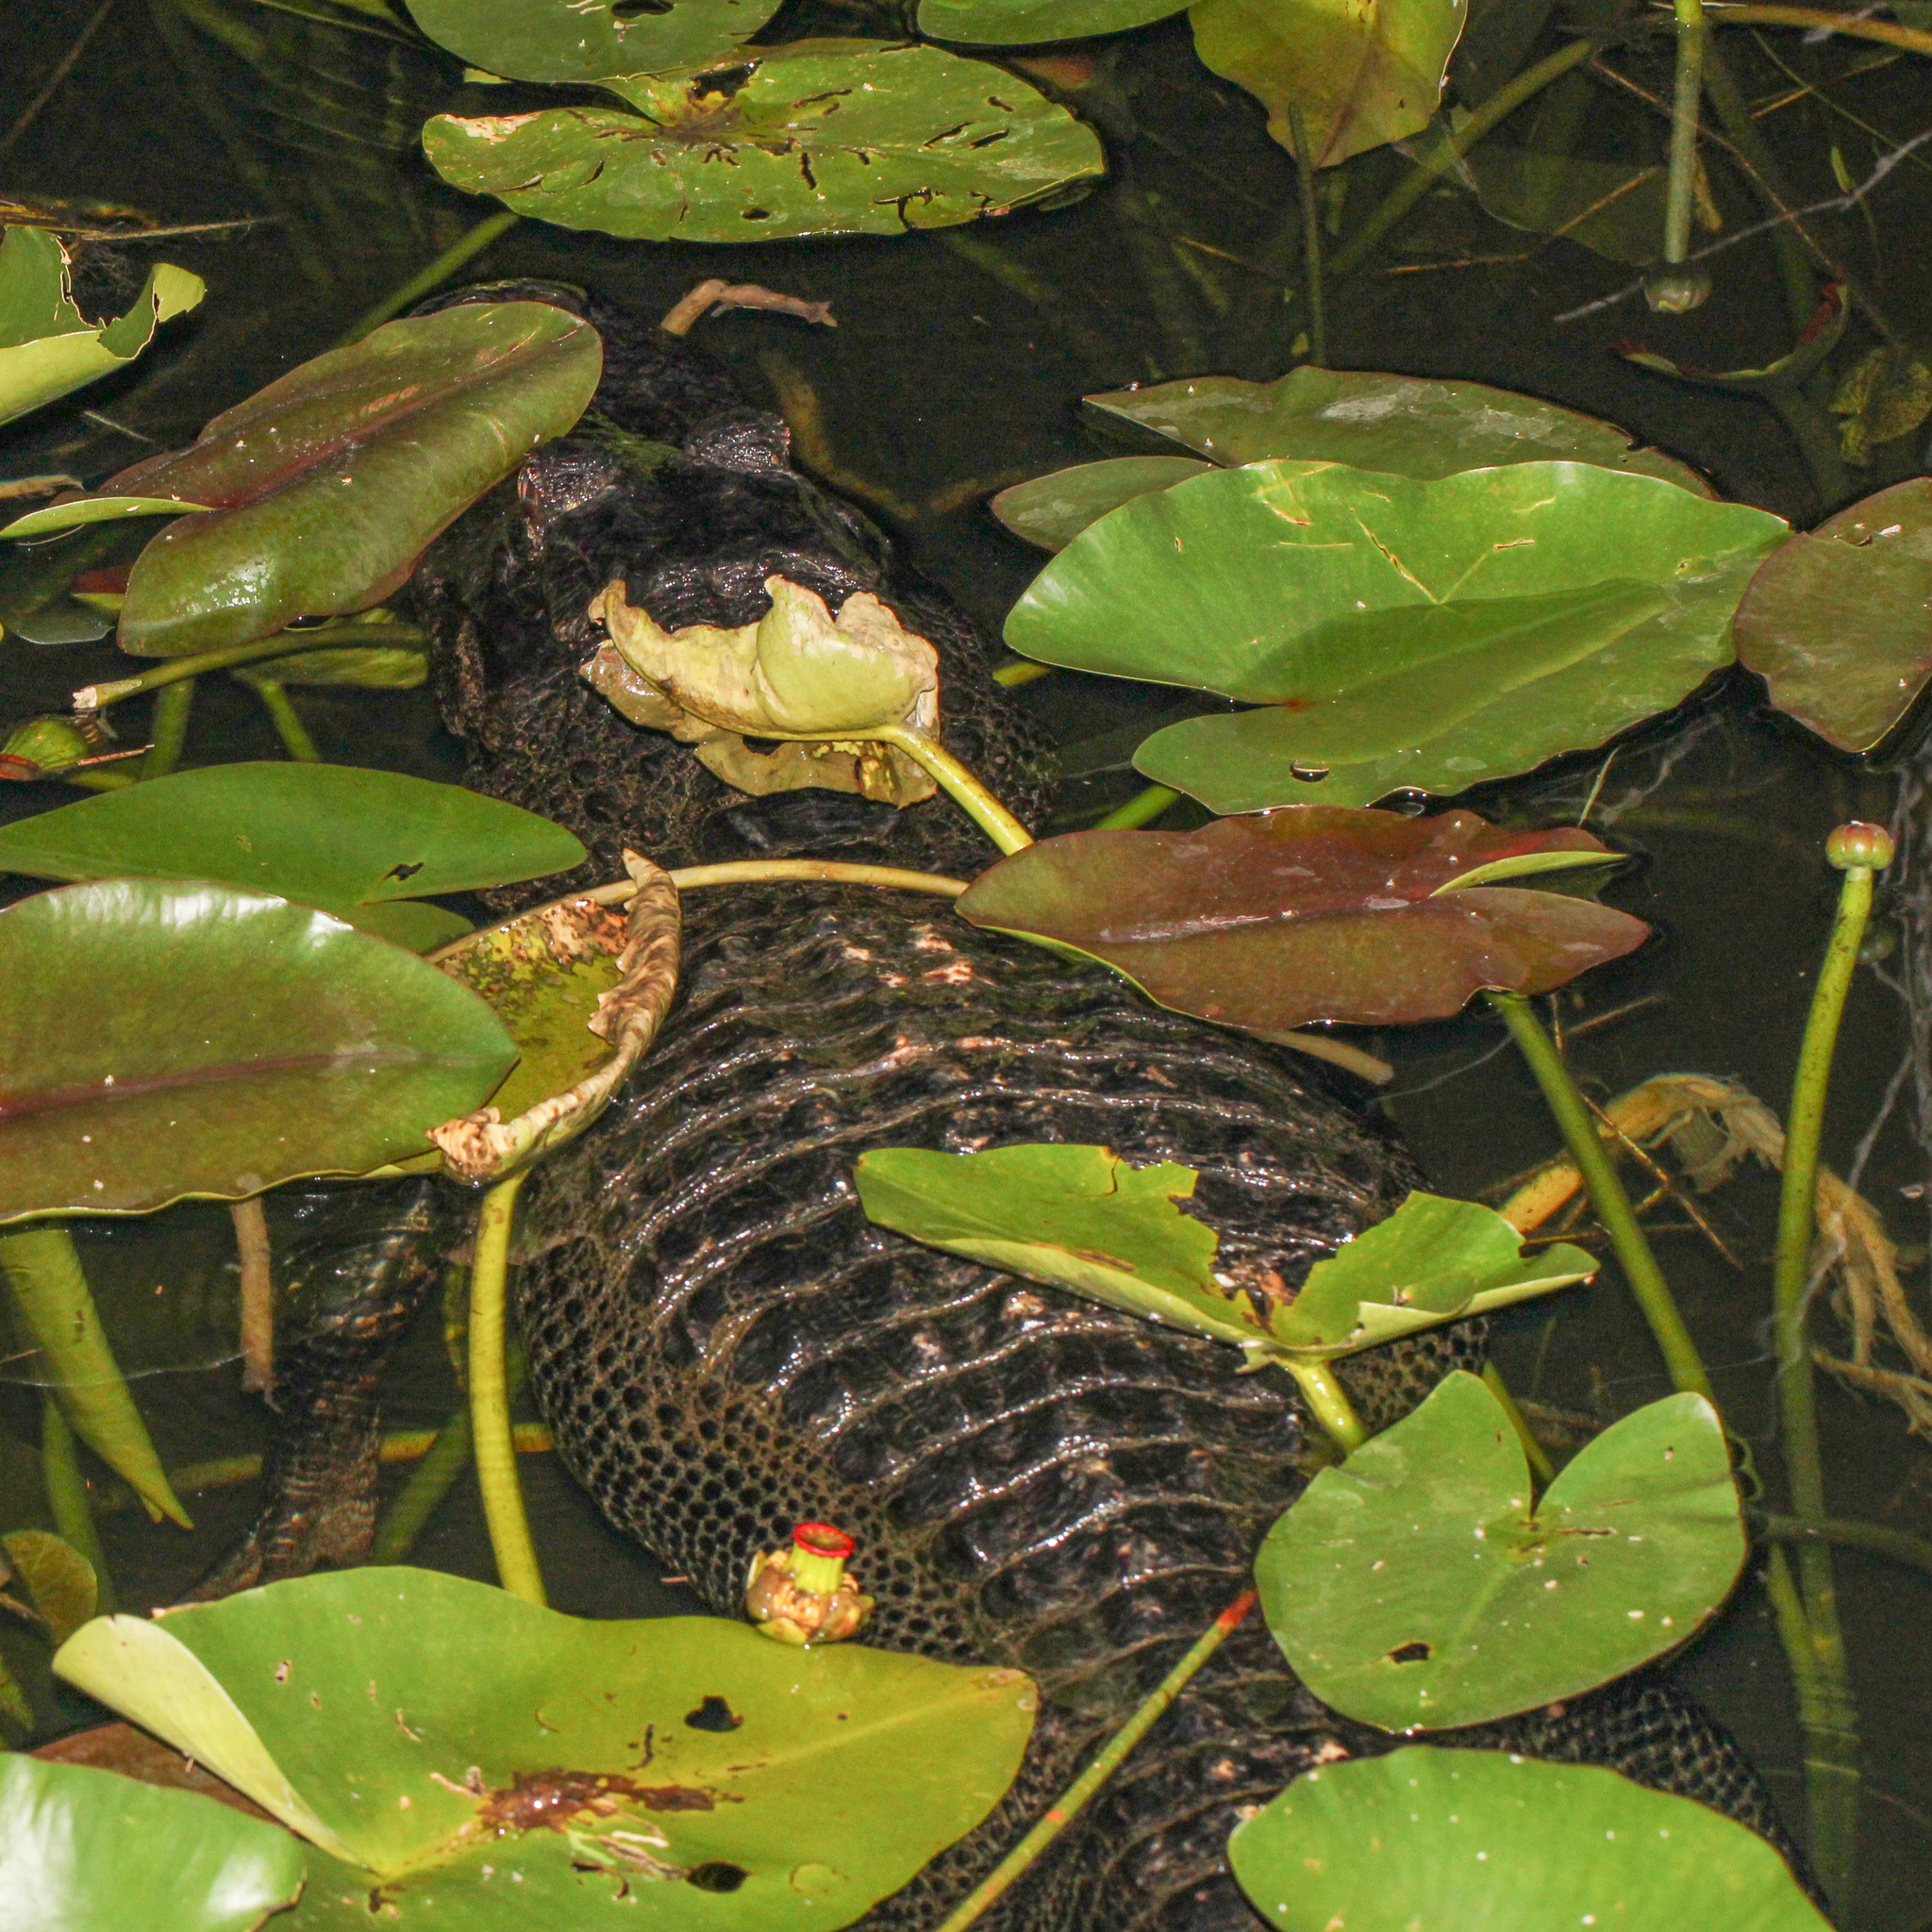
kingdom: Animalia
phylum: Chordata
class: Crocodylia
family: Alligatoridae
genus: Alligator
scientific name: Alligator mississippiensis
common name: American alligator
